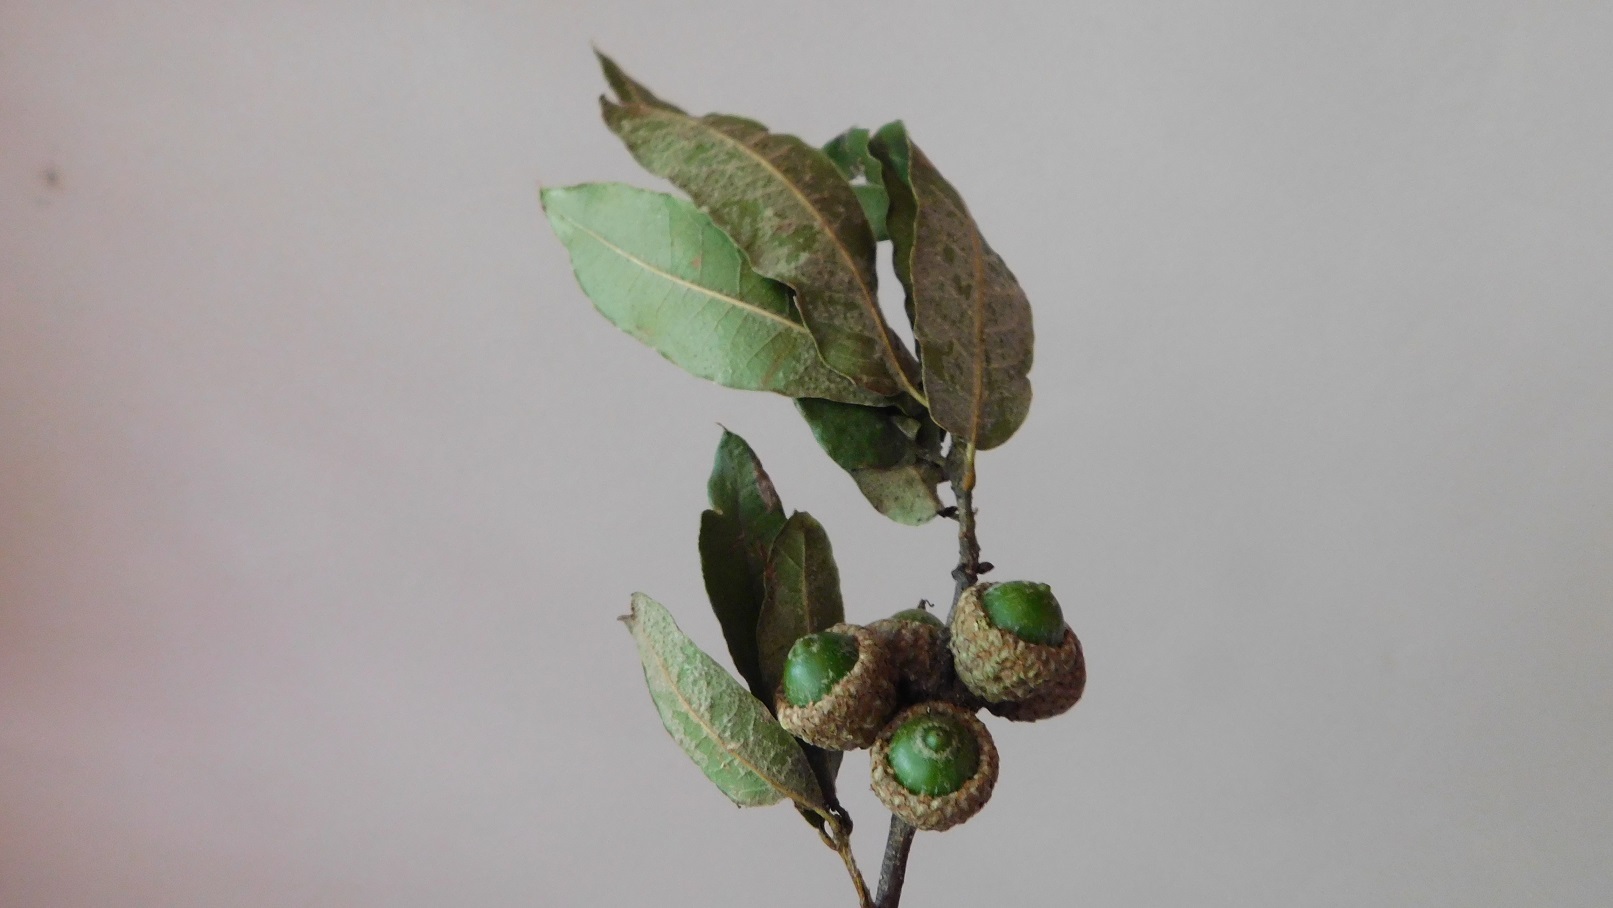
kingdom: Plantae
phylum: Tracheophyta
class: Magnoliopsida
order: Fagales
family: Fagaceae
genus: Quercus
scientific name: Quercus crispipilis
